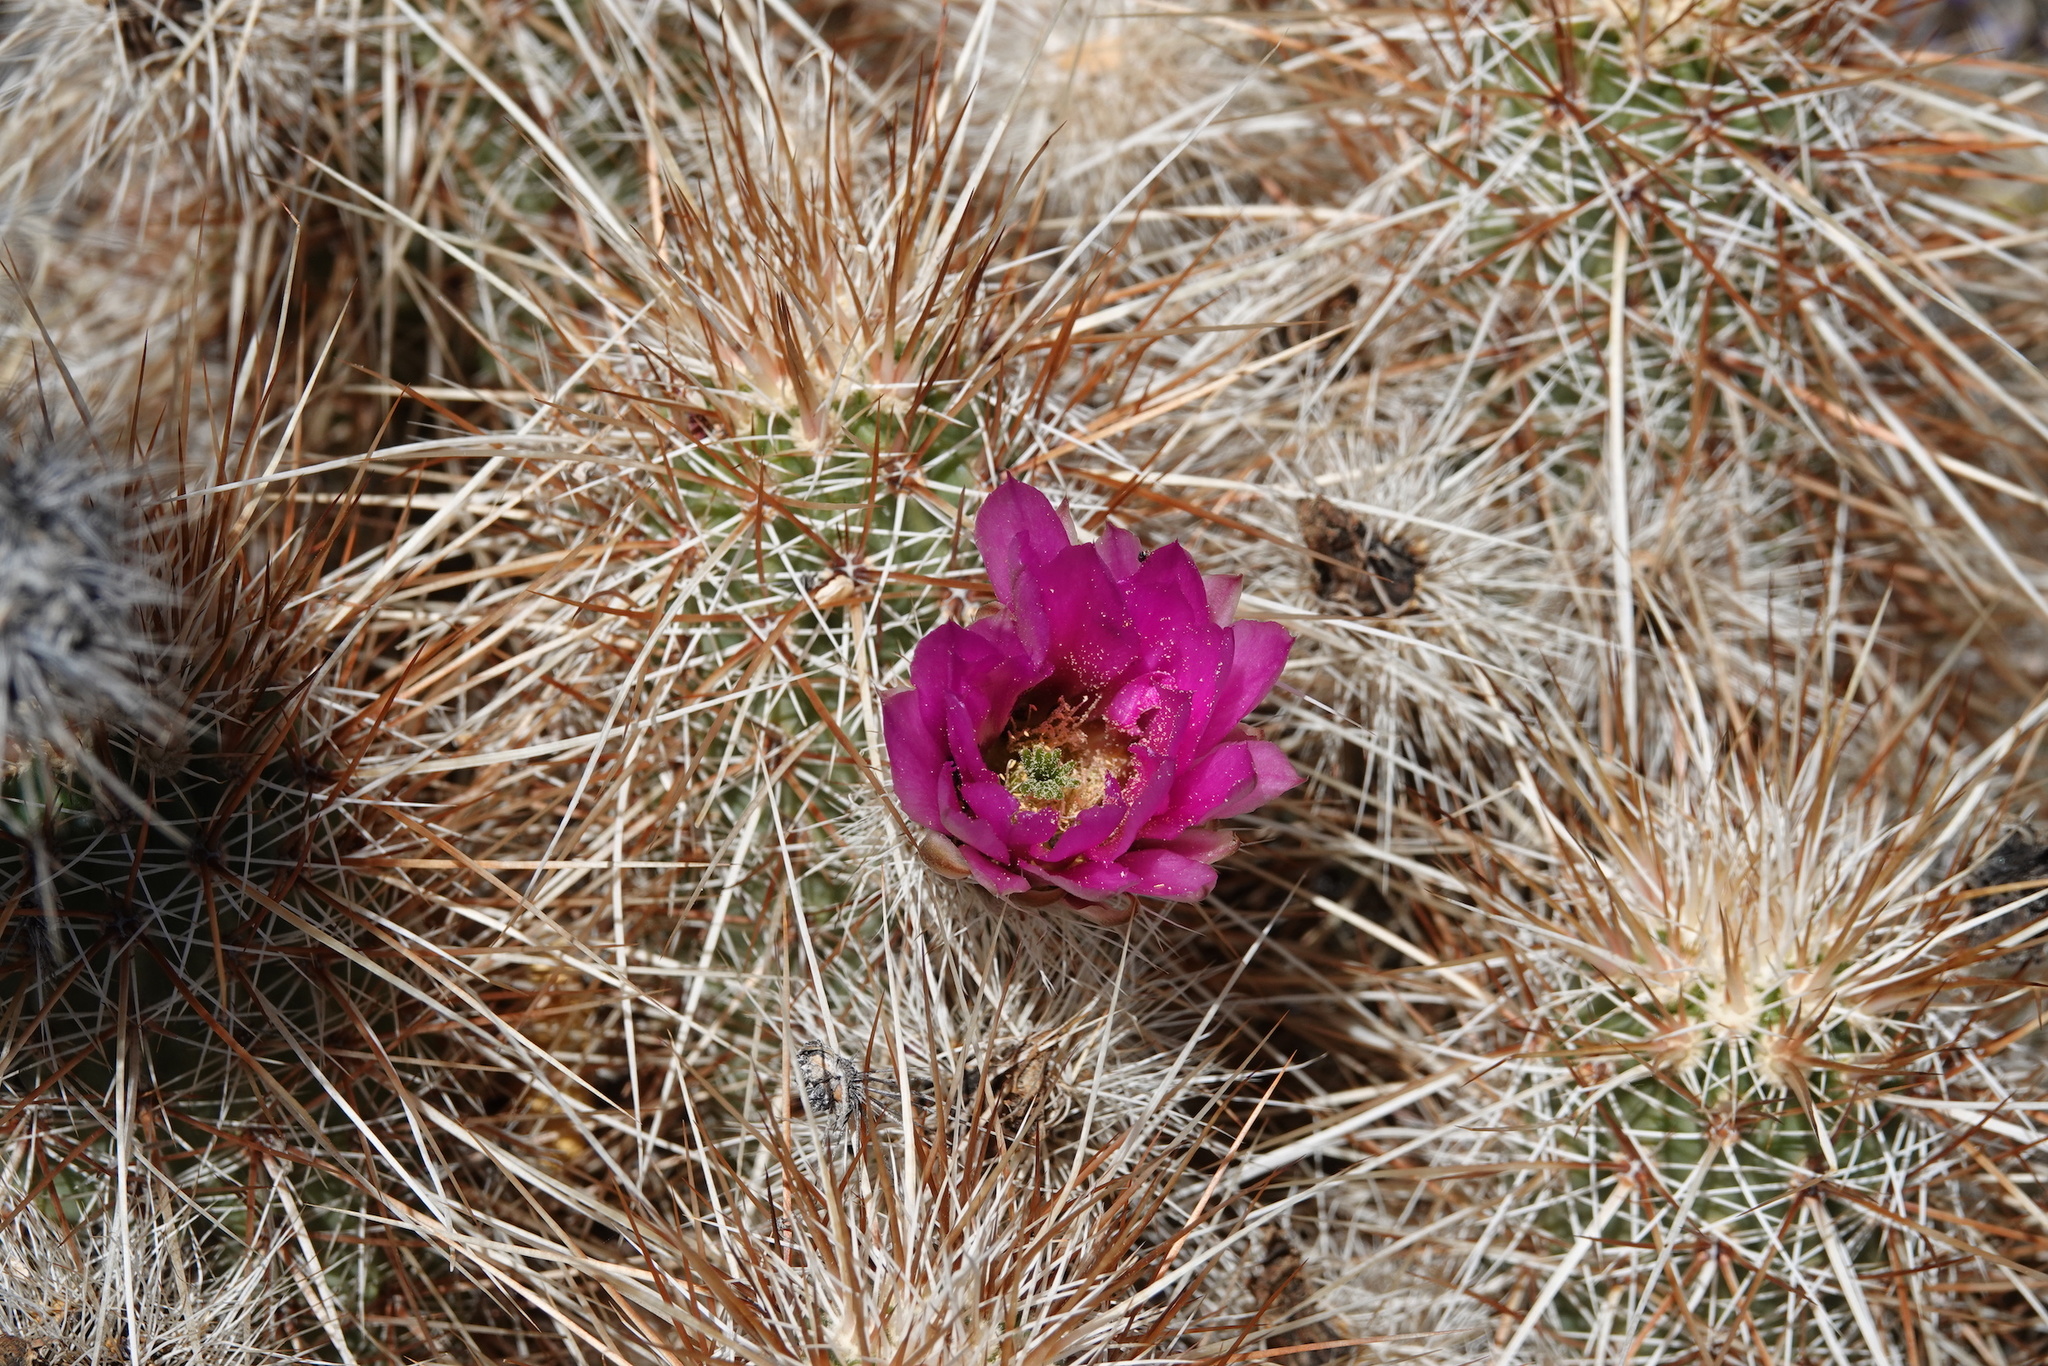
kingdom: Plantae
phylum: Tracheophyta
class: Magnoliopsida
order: Caryophyllales
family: Cactaceae
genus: Echinocereus
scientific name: Echinocereus engelmannii
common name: Engelmann's hedgehog cactus
